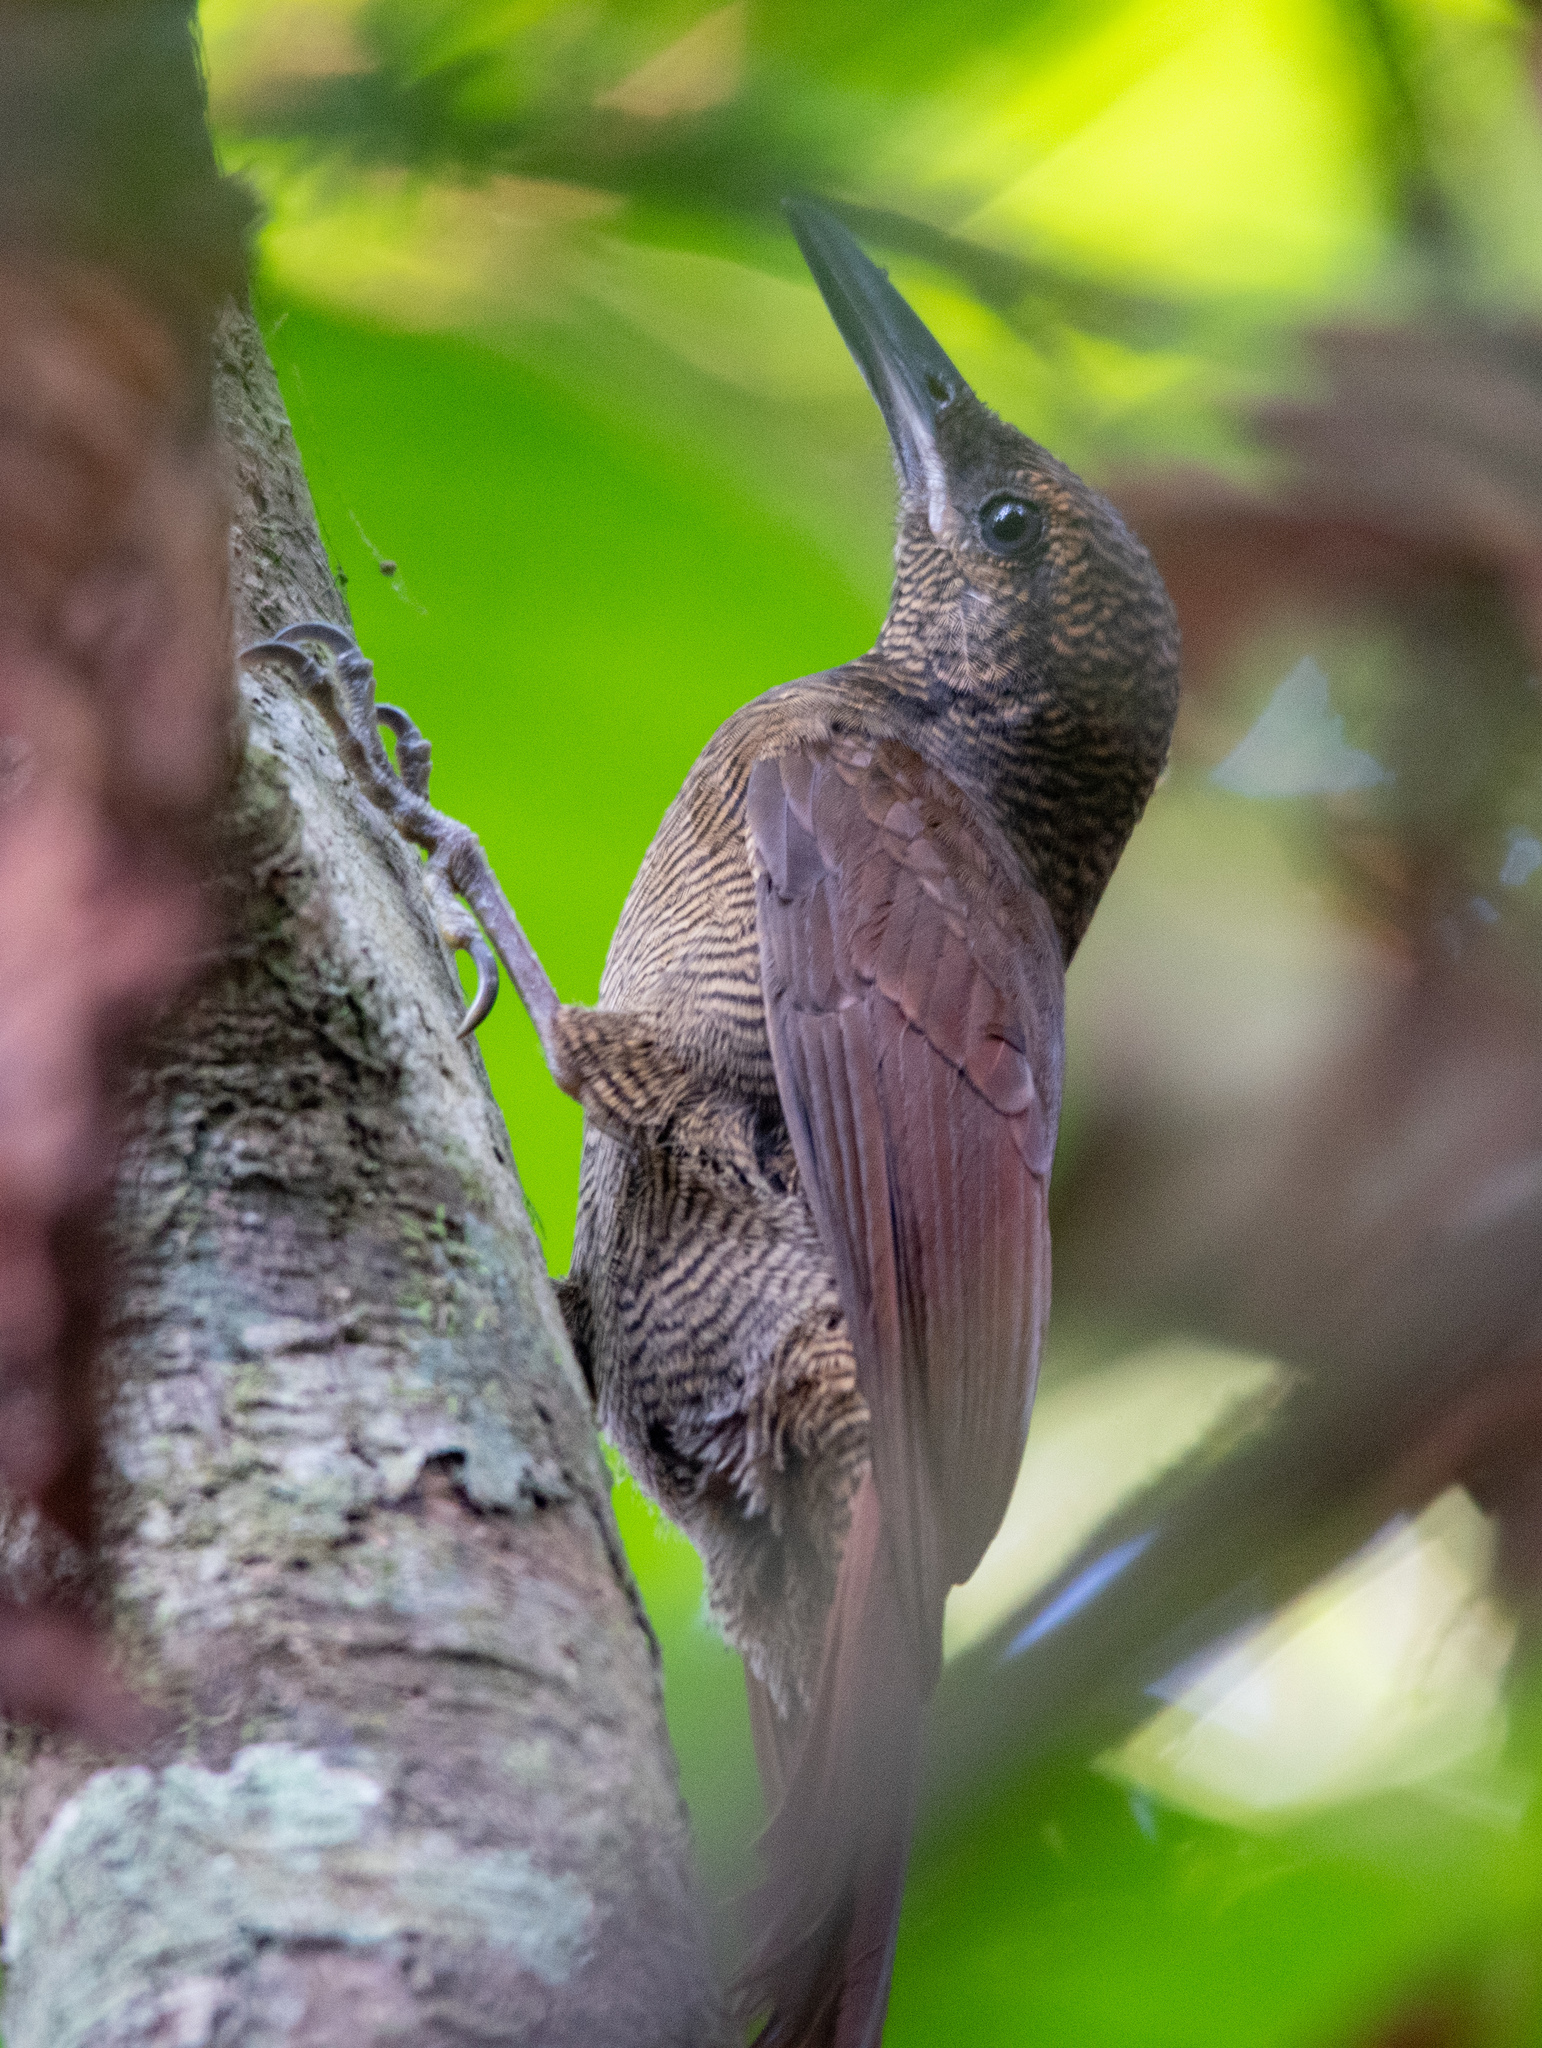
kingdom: Animalia
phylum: Chordata
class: Aves
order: Passeriformes
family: Furnariidae
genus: Dendrocolaptes
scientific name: Dendrocolaptes sanctithomae
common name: Northern barred-woodcreeper
